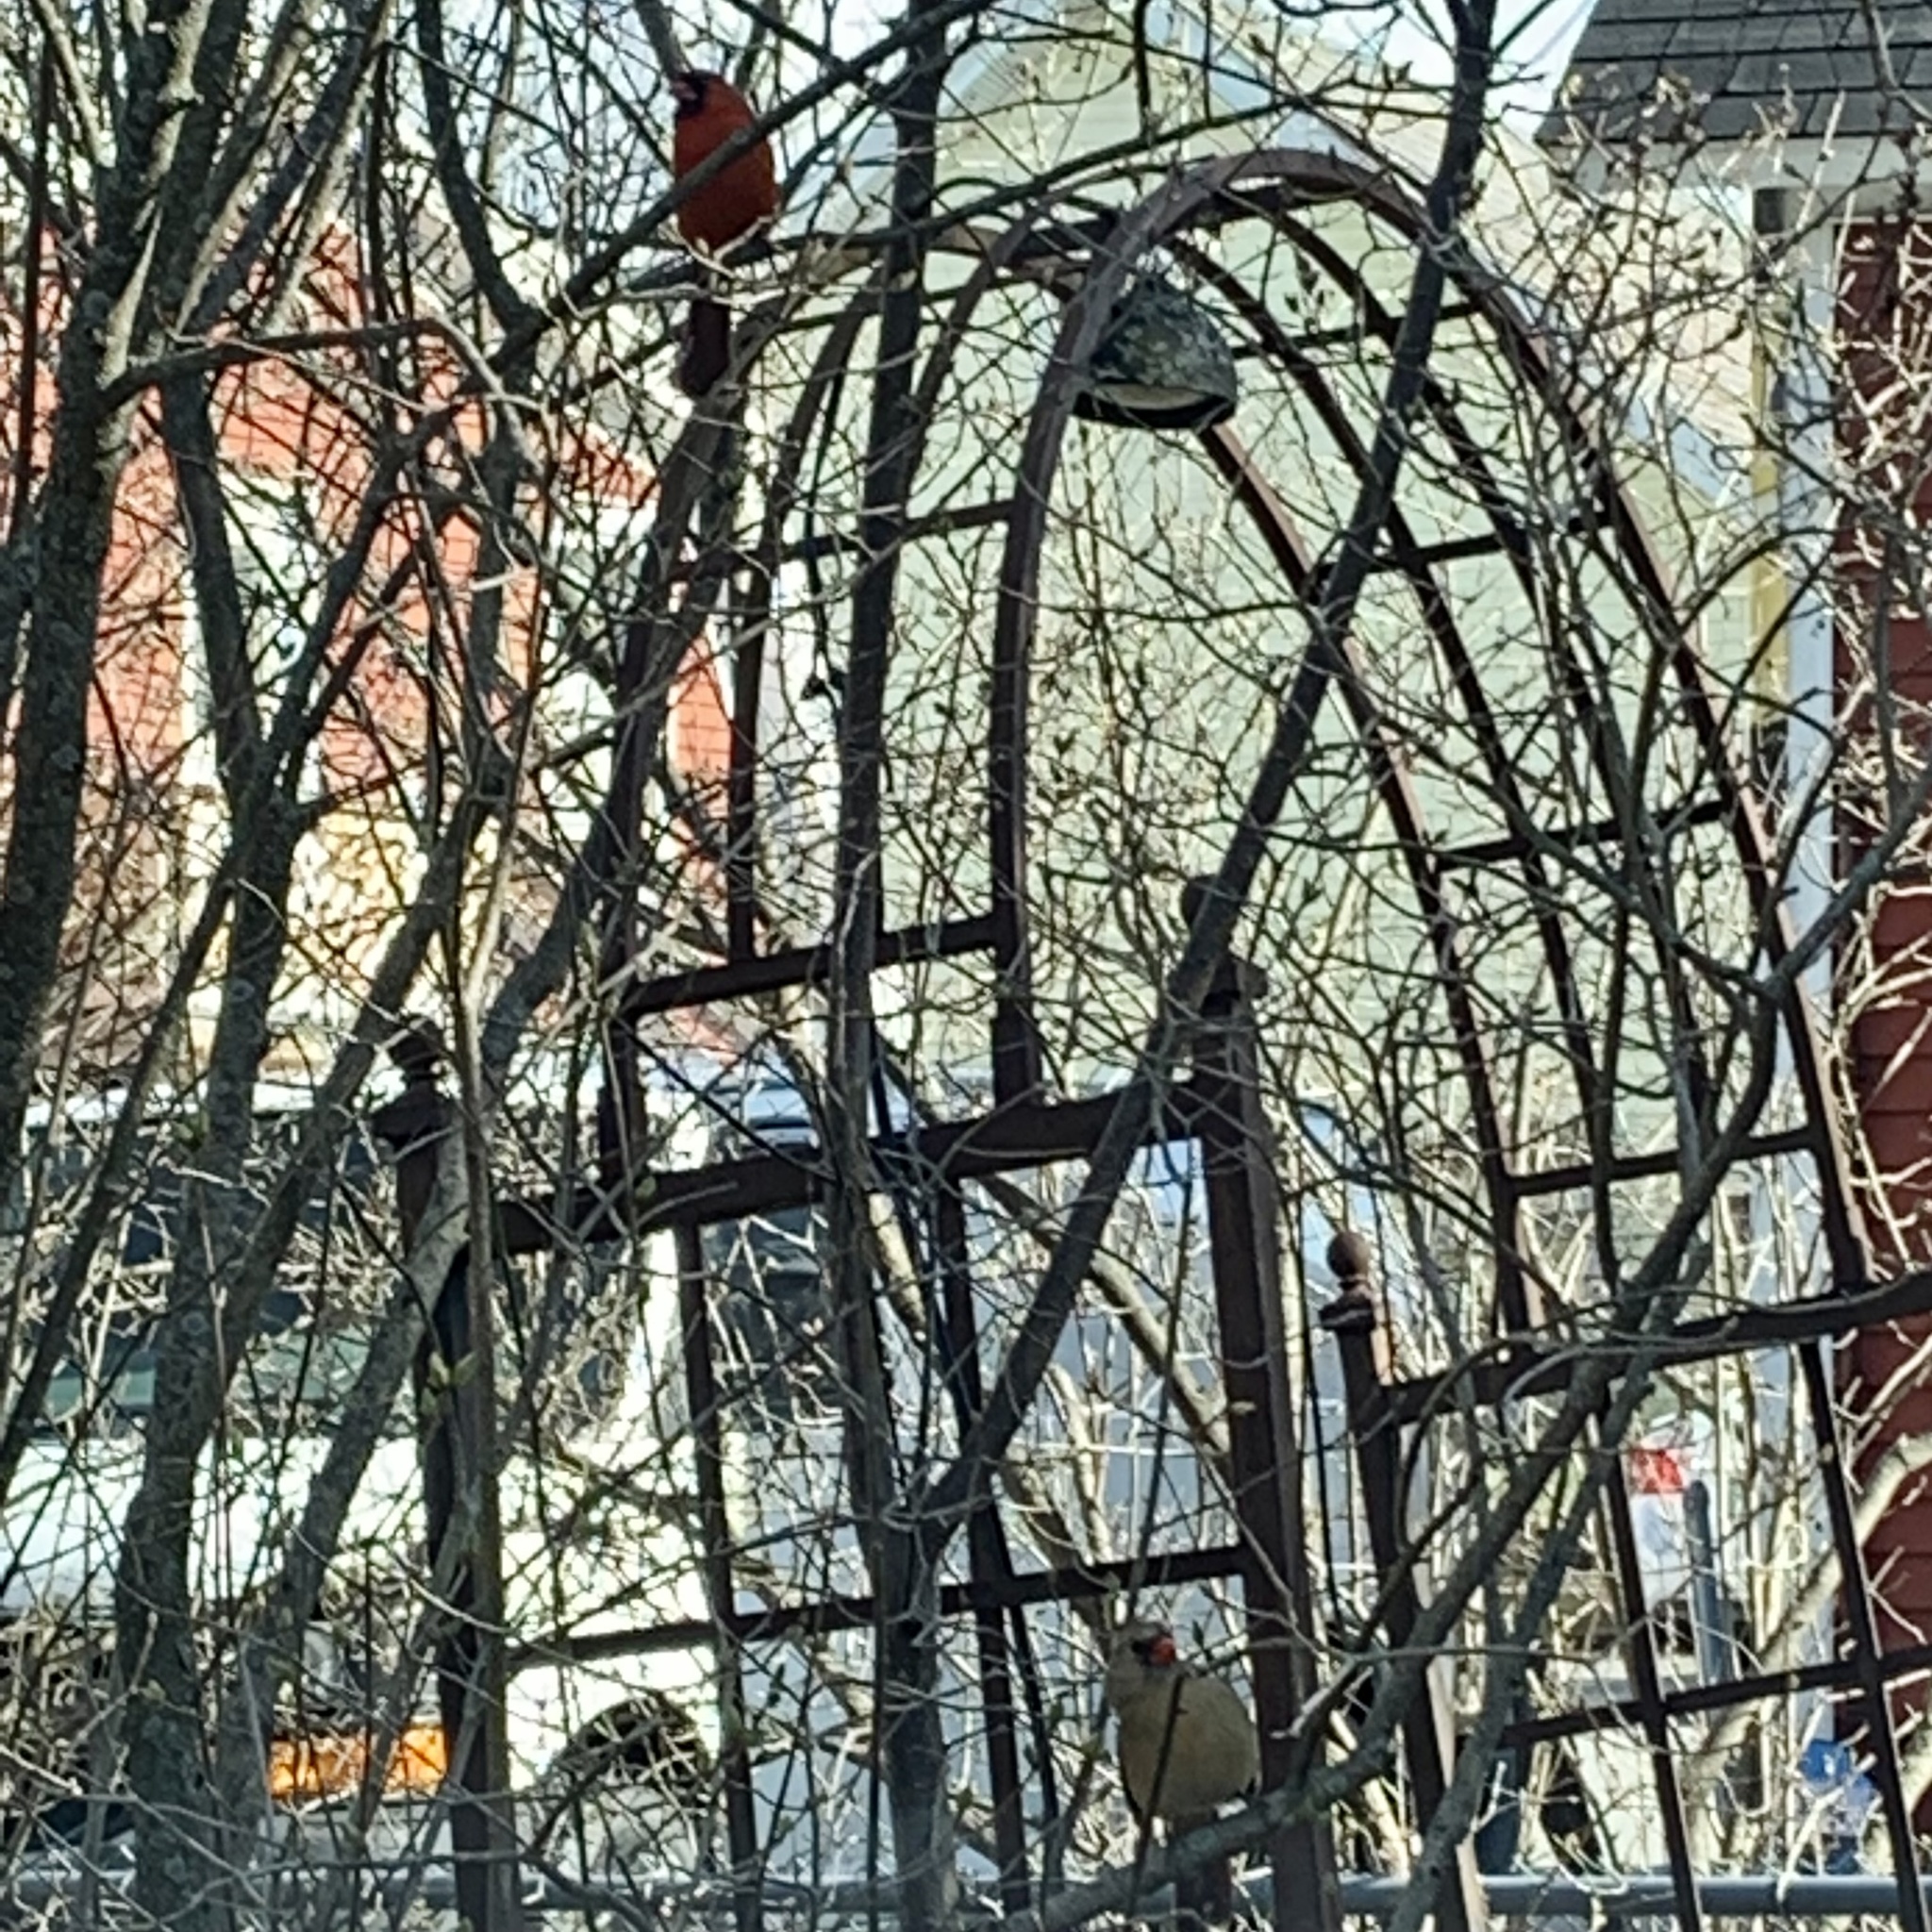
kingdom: Animalia
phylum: Chordata
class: Aves
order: Passeriformes
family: Cardinalidae
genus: Cardinalis
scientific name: Cardinalis cardinalis
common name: Northern cardinal
